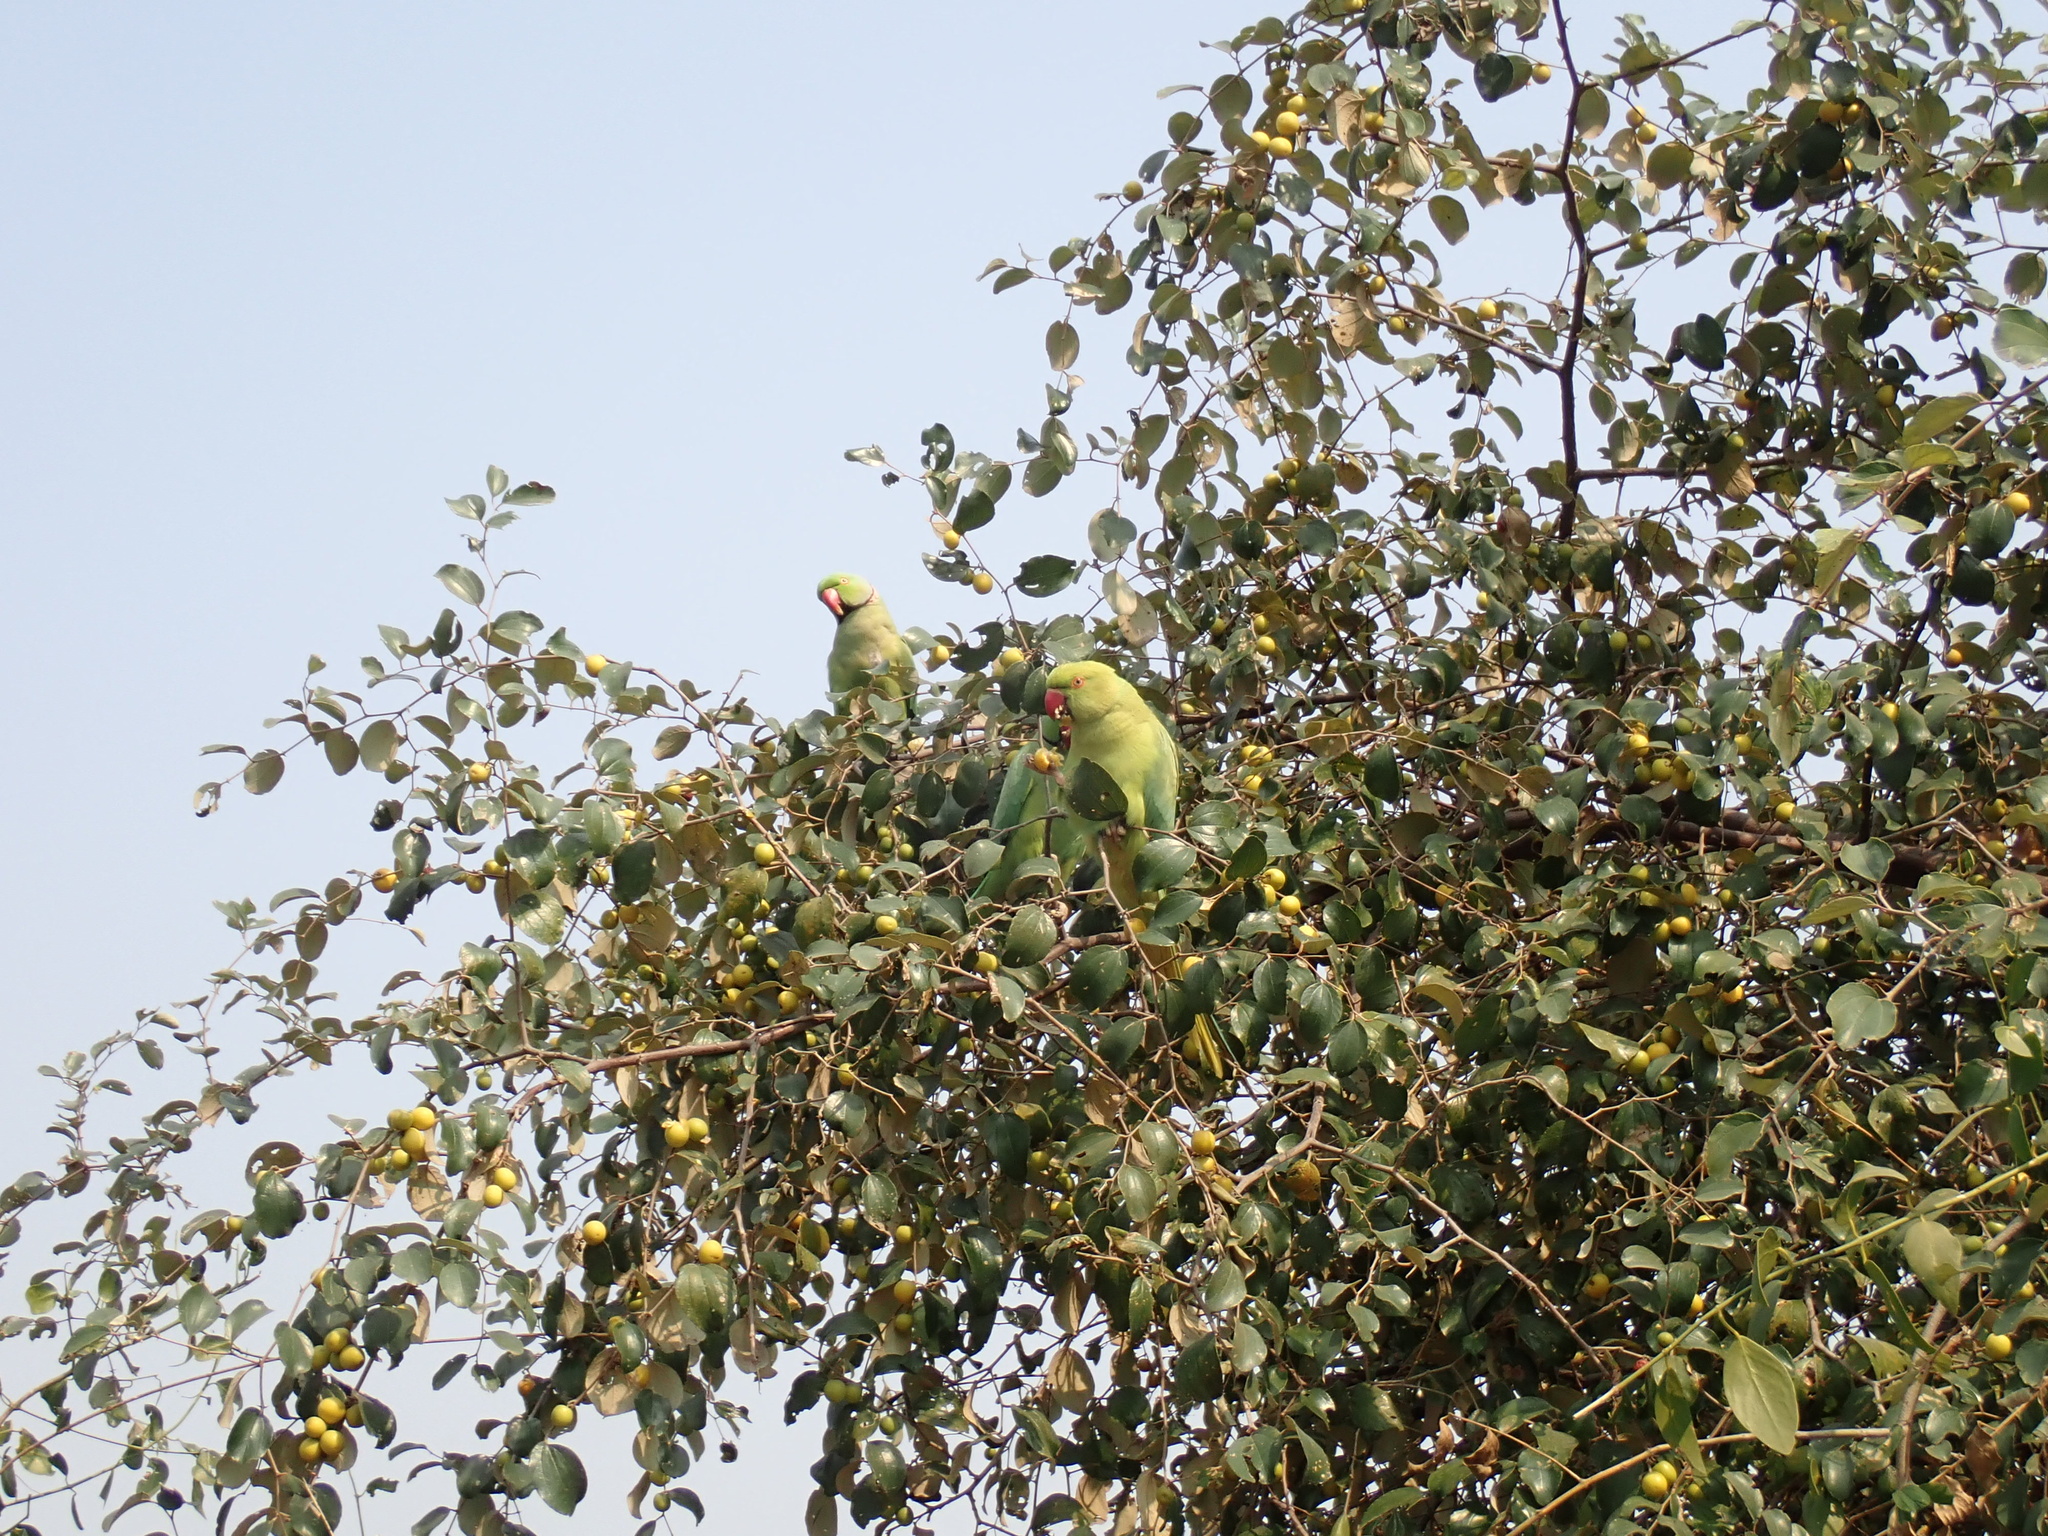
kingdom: Animalia
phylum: Chordata
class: Aves
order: Psittaciformes
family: Psittacidae
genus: Psittacula
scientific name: Psittacula krameri
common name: Rose-ringed parakeet
